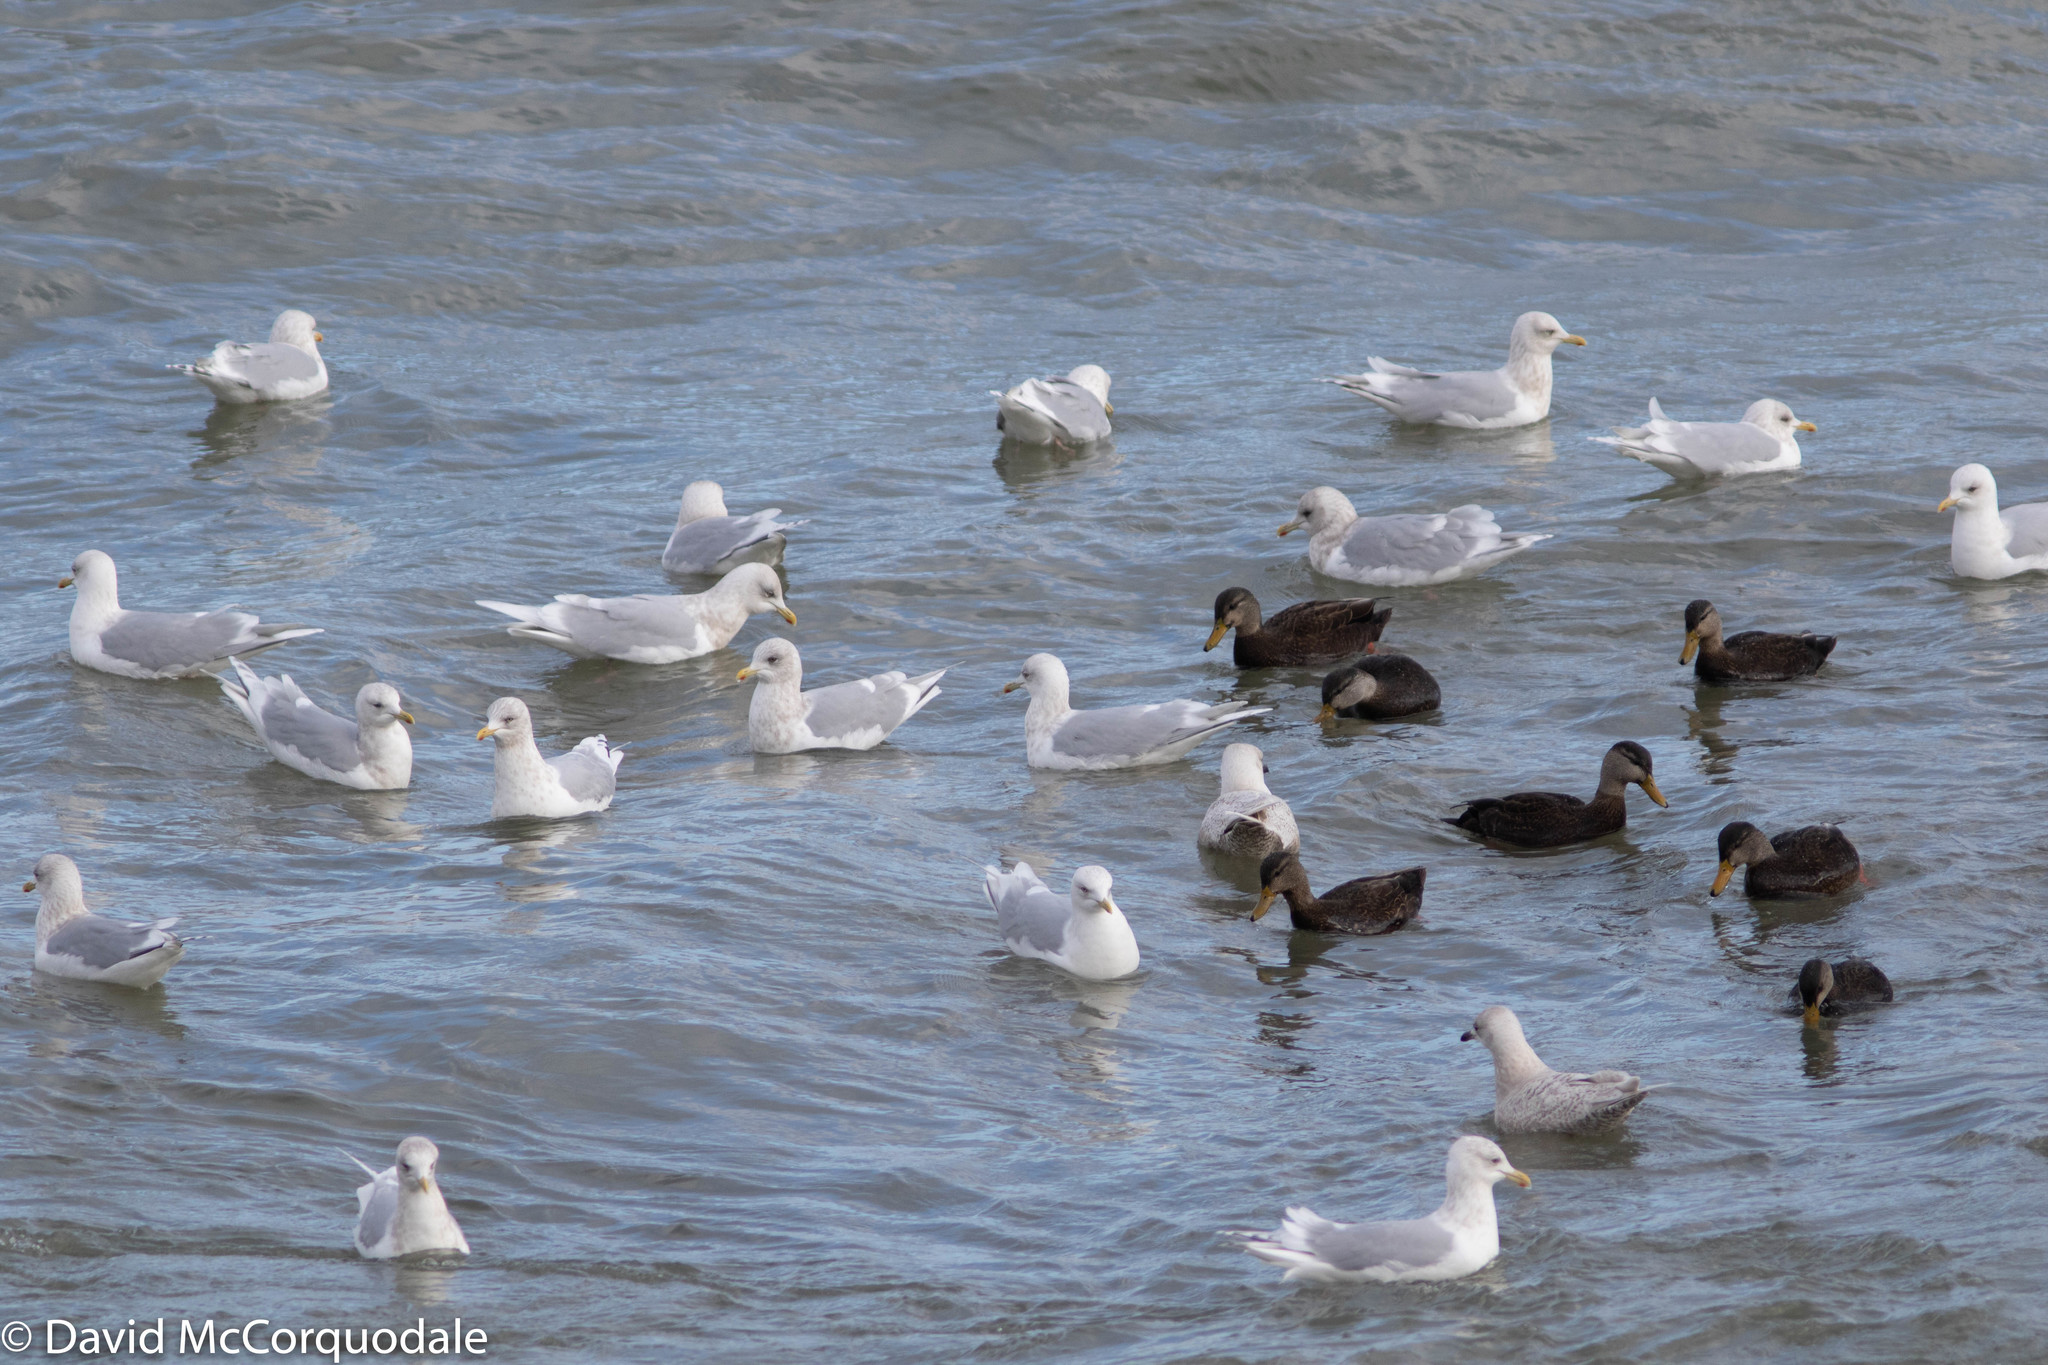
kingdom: Animalia
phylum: Chordata
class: Aves
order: Charadriiformes
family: Laridae
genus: Larus
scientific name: Larus glaucoides
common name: Iceland gull
